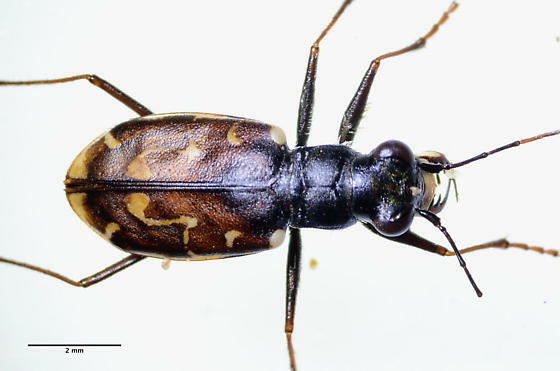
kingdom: Animalia
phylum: Arthropoda
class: Insecta
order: Coleoptera
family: Carabidae
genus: Cicindela
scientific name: Cicindela hirticollis
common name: Hairy-necked tiger beetle
